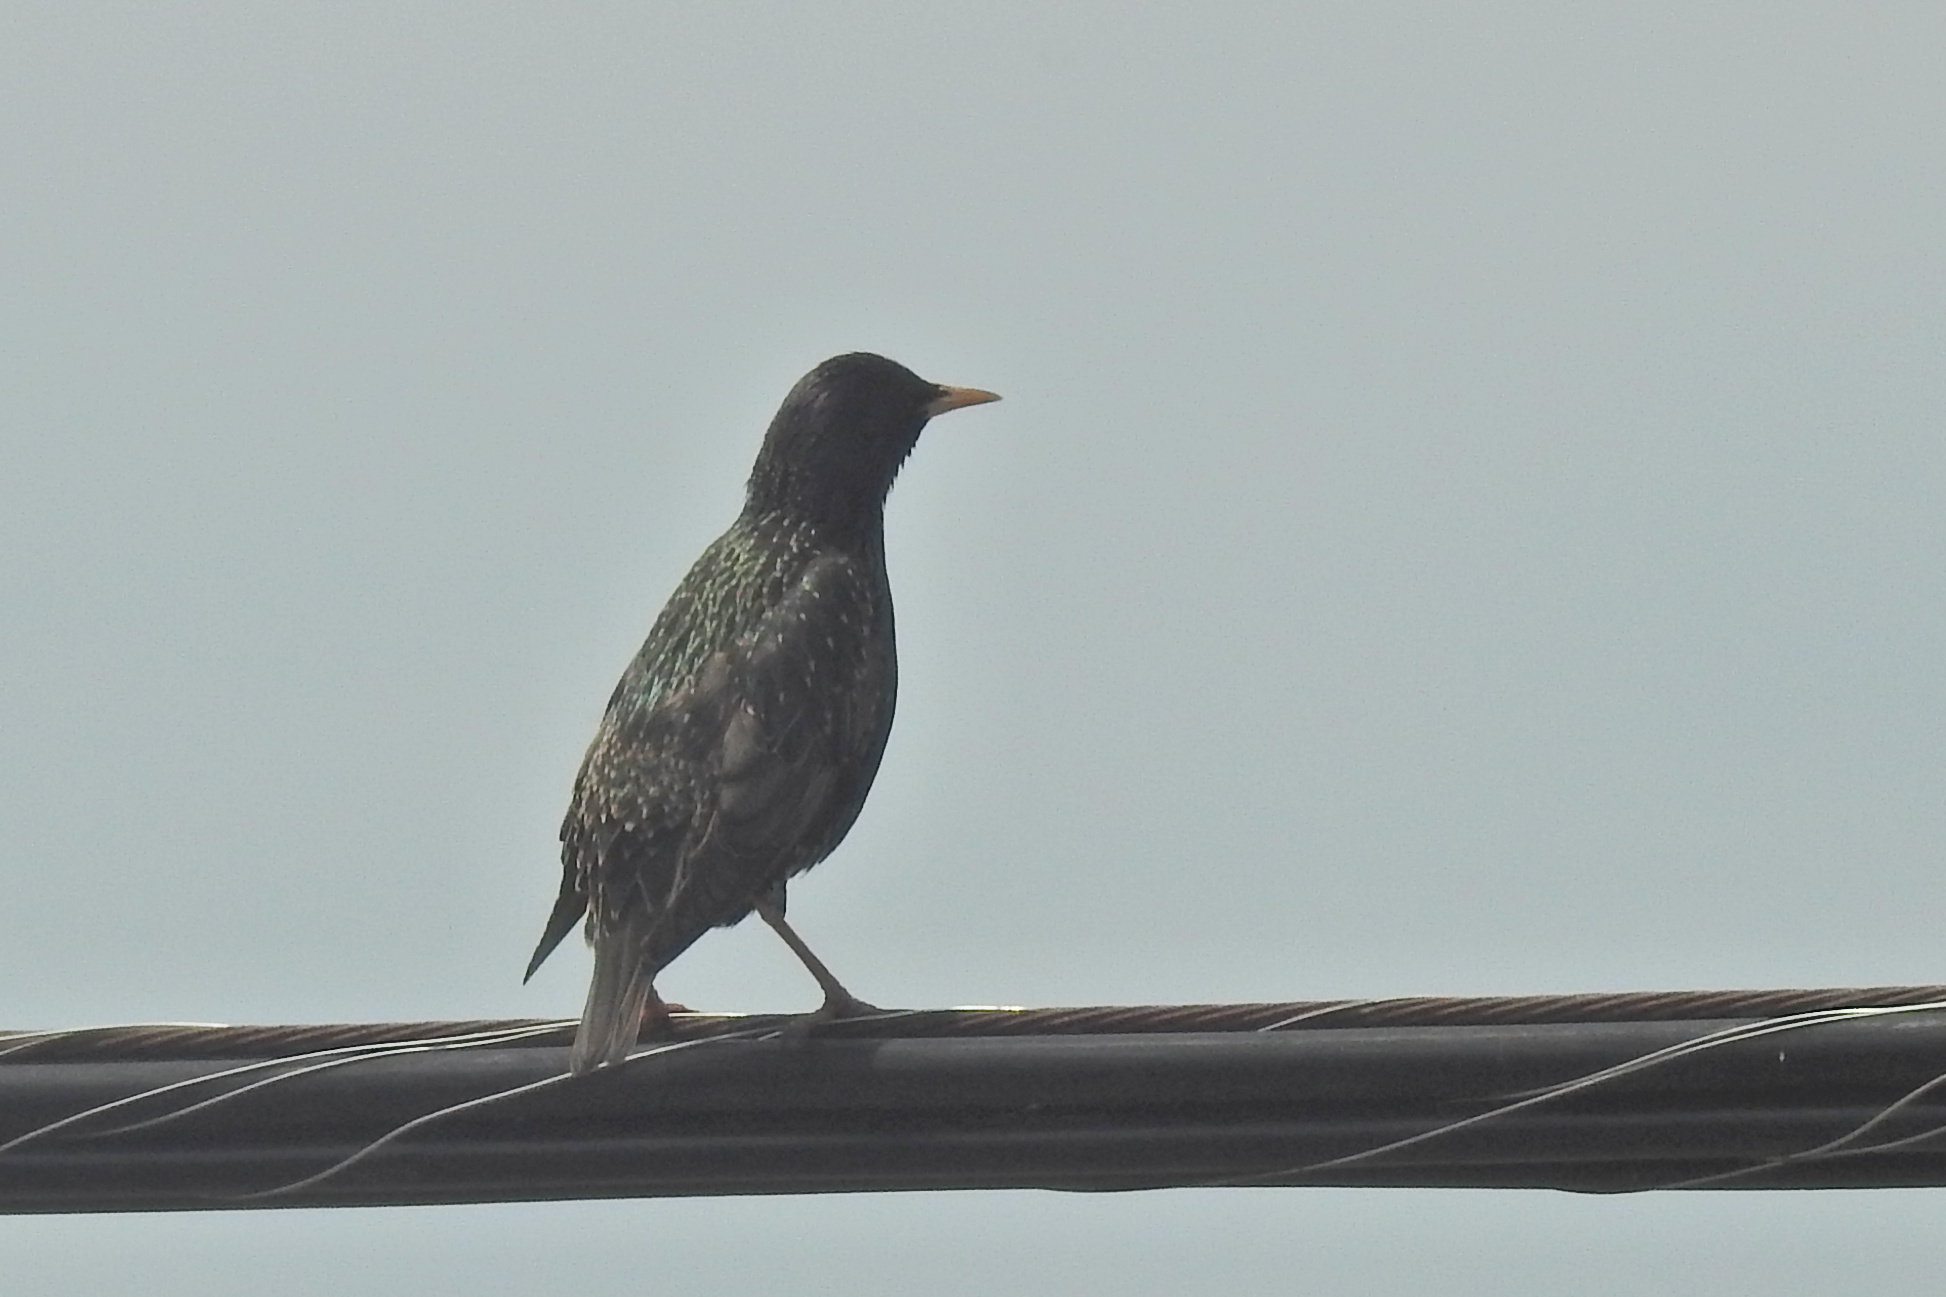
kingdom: Animalia
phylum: Chordata
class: Aves
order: Passeriformes
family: Sturnidae
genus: Sturnus
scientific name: Sturnus vulgaris
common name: Common starling
